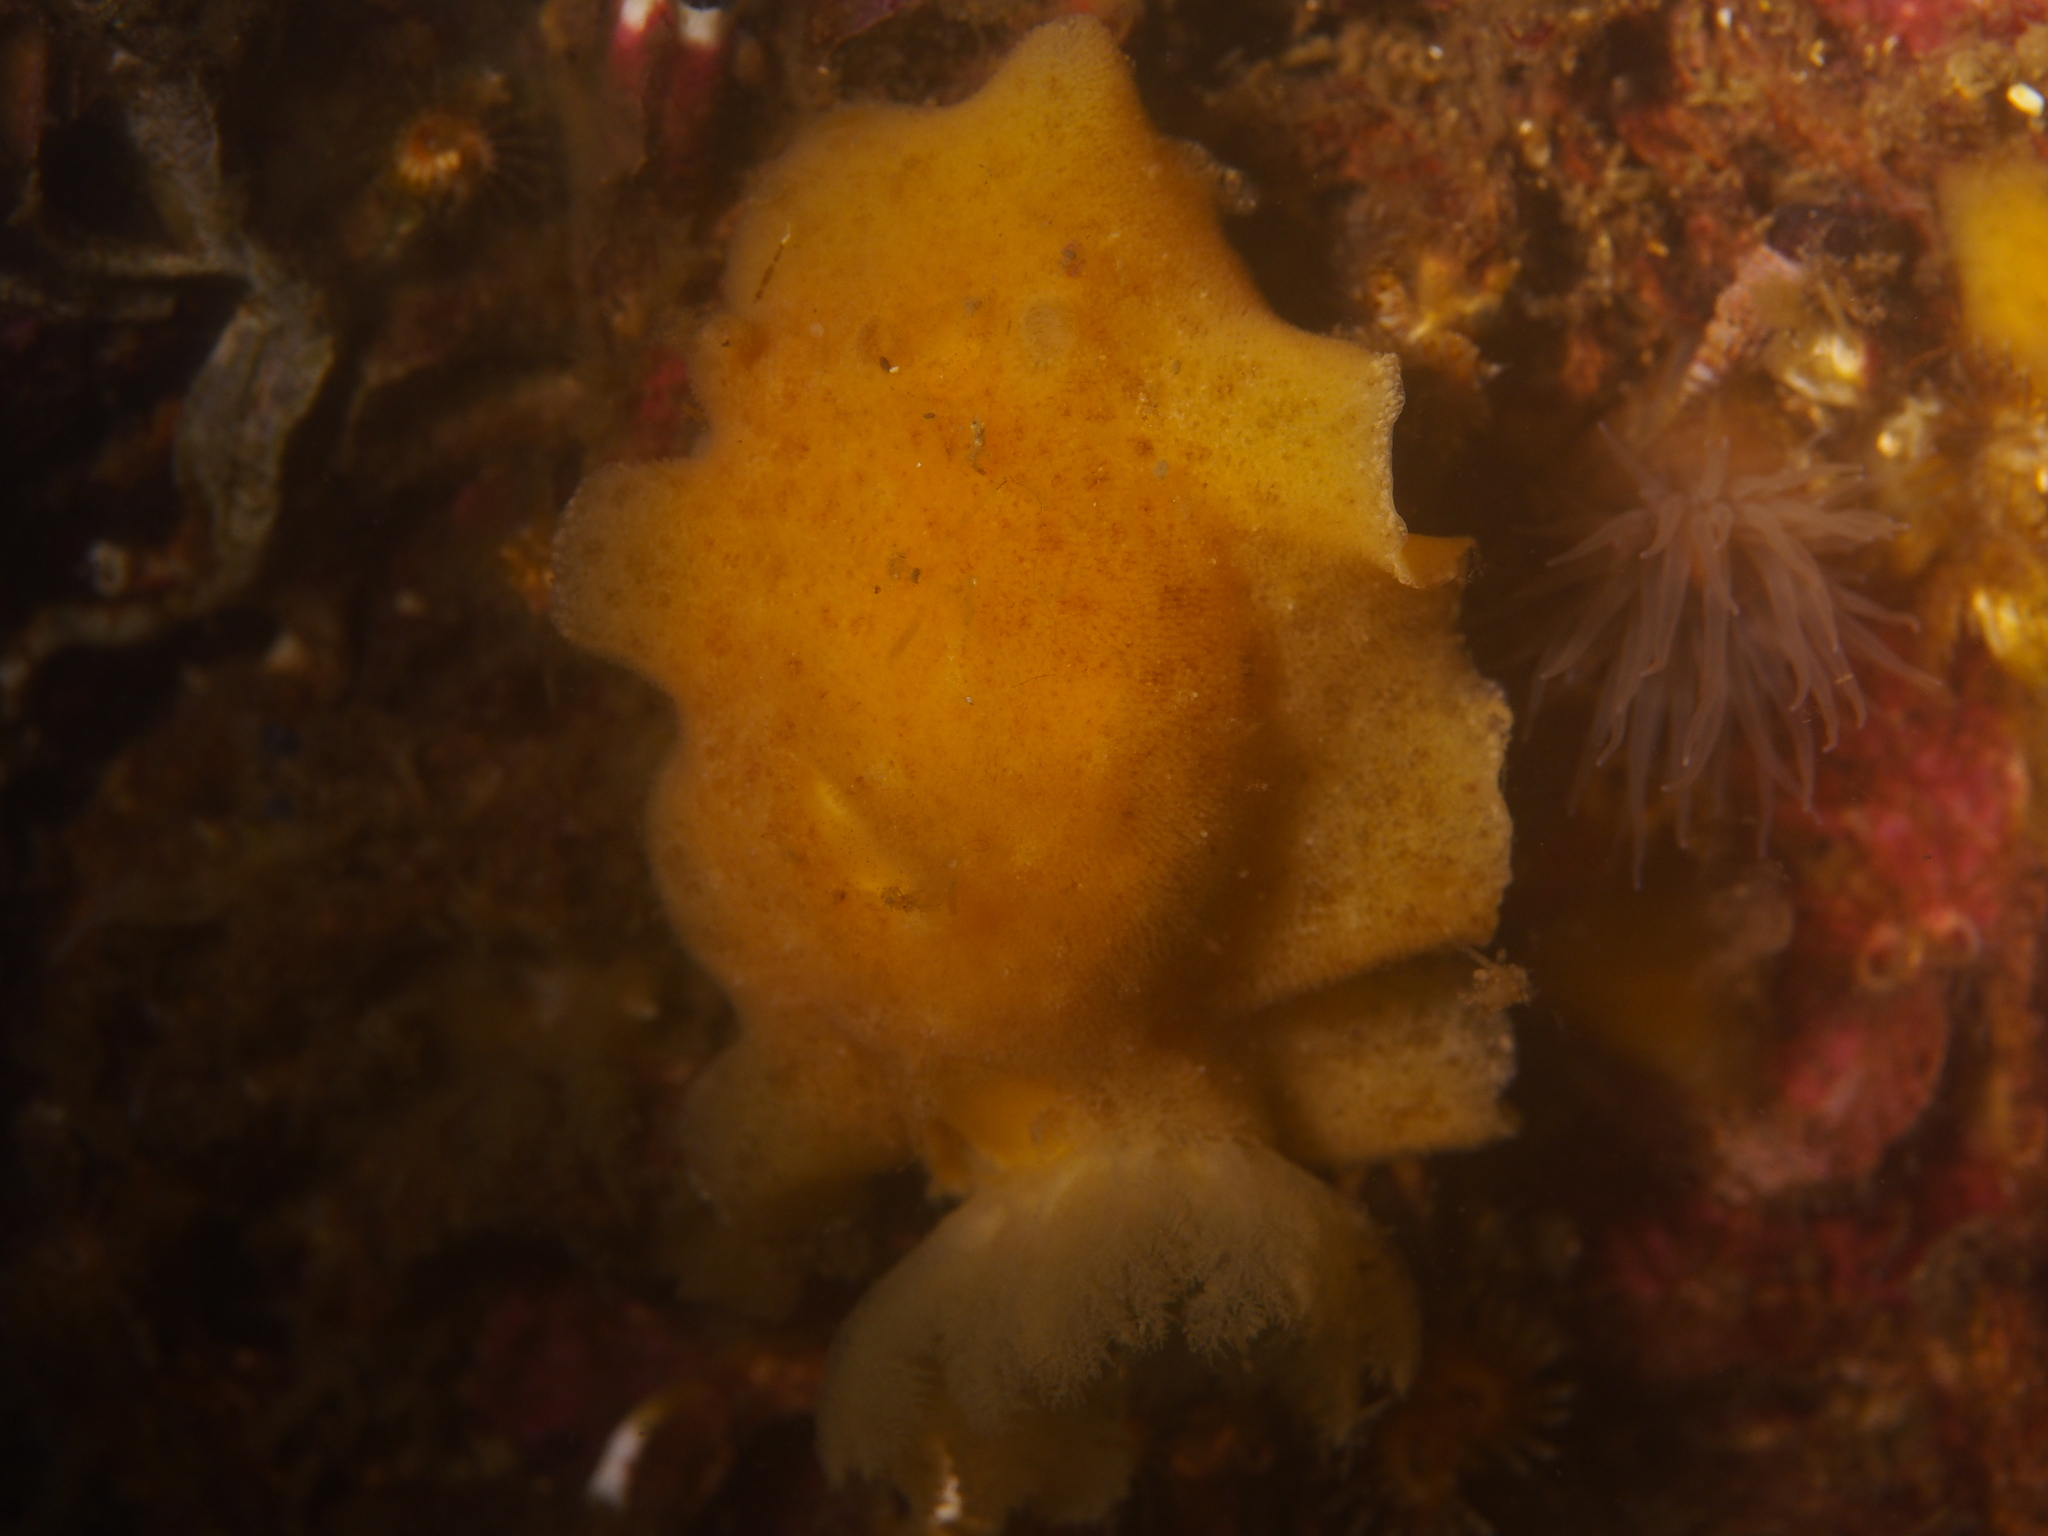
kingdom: Animalia
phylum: Mollusca
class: Gastropoda
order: Nudibranchia
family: Discodorididae
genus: Jorunna
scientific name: Jorunna tomentosa
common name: Grey sea slug
